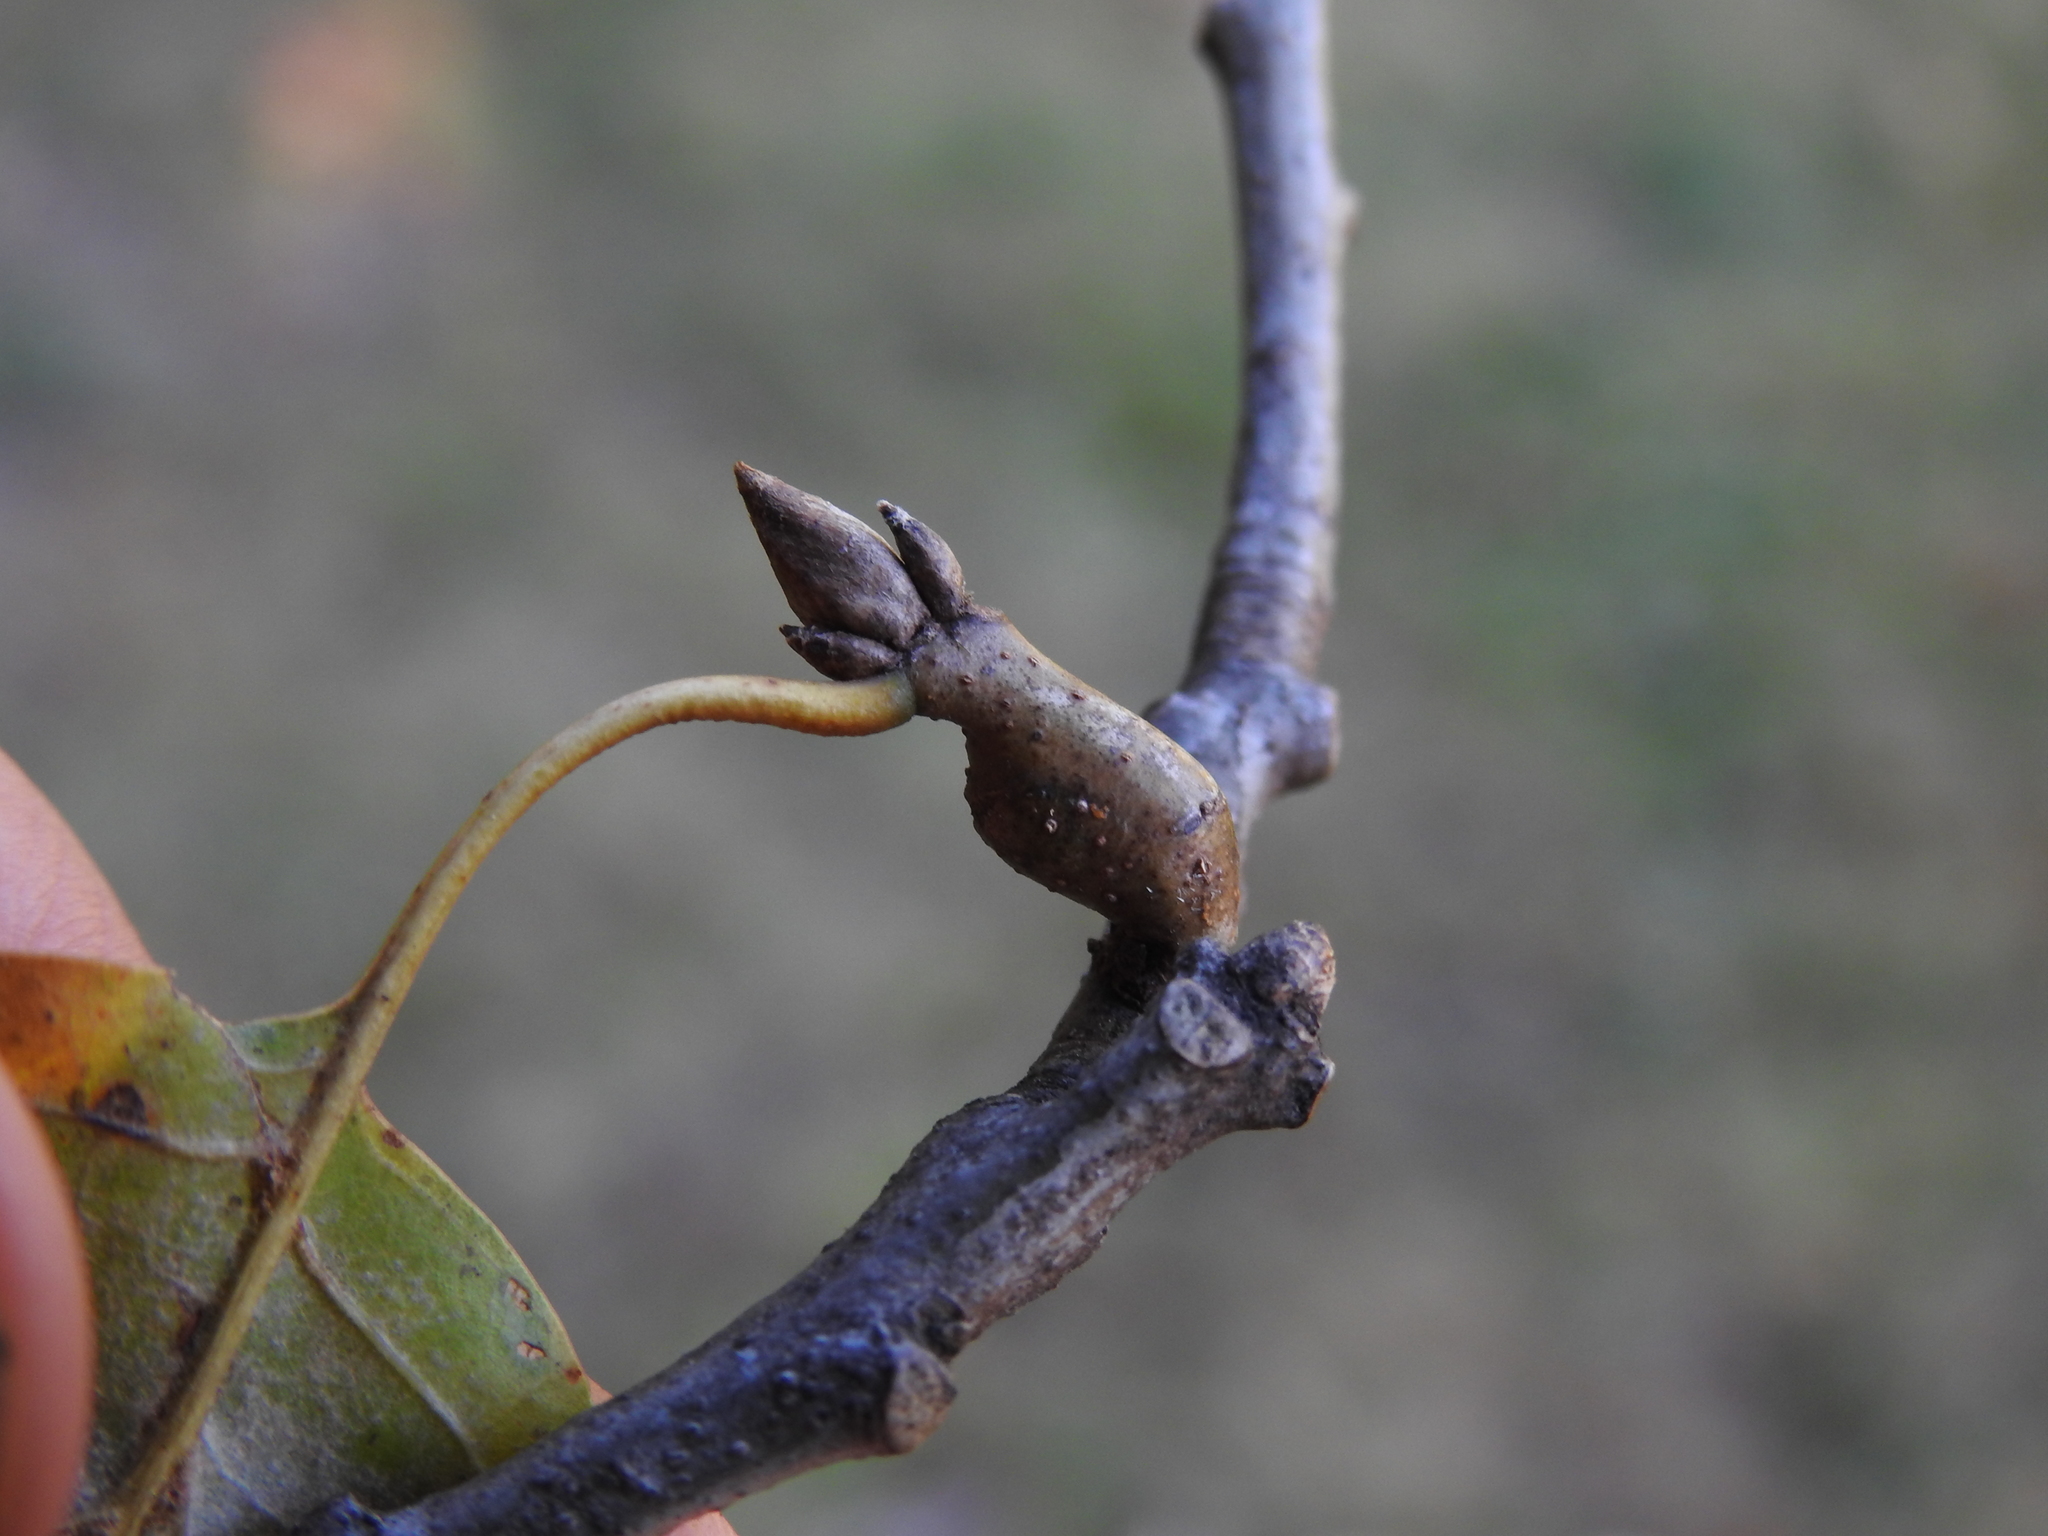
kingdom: Animalia
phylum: Arthropoda
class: Insecta
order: Hymenoptera
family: Cynipidae
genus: Callirhytis
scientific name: Callirhytis
